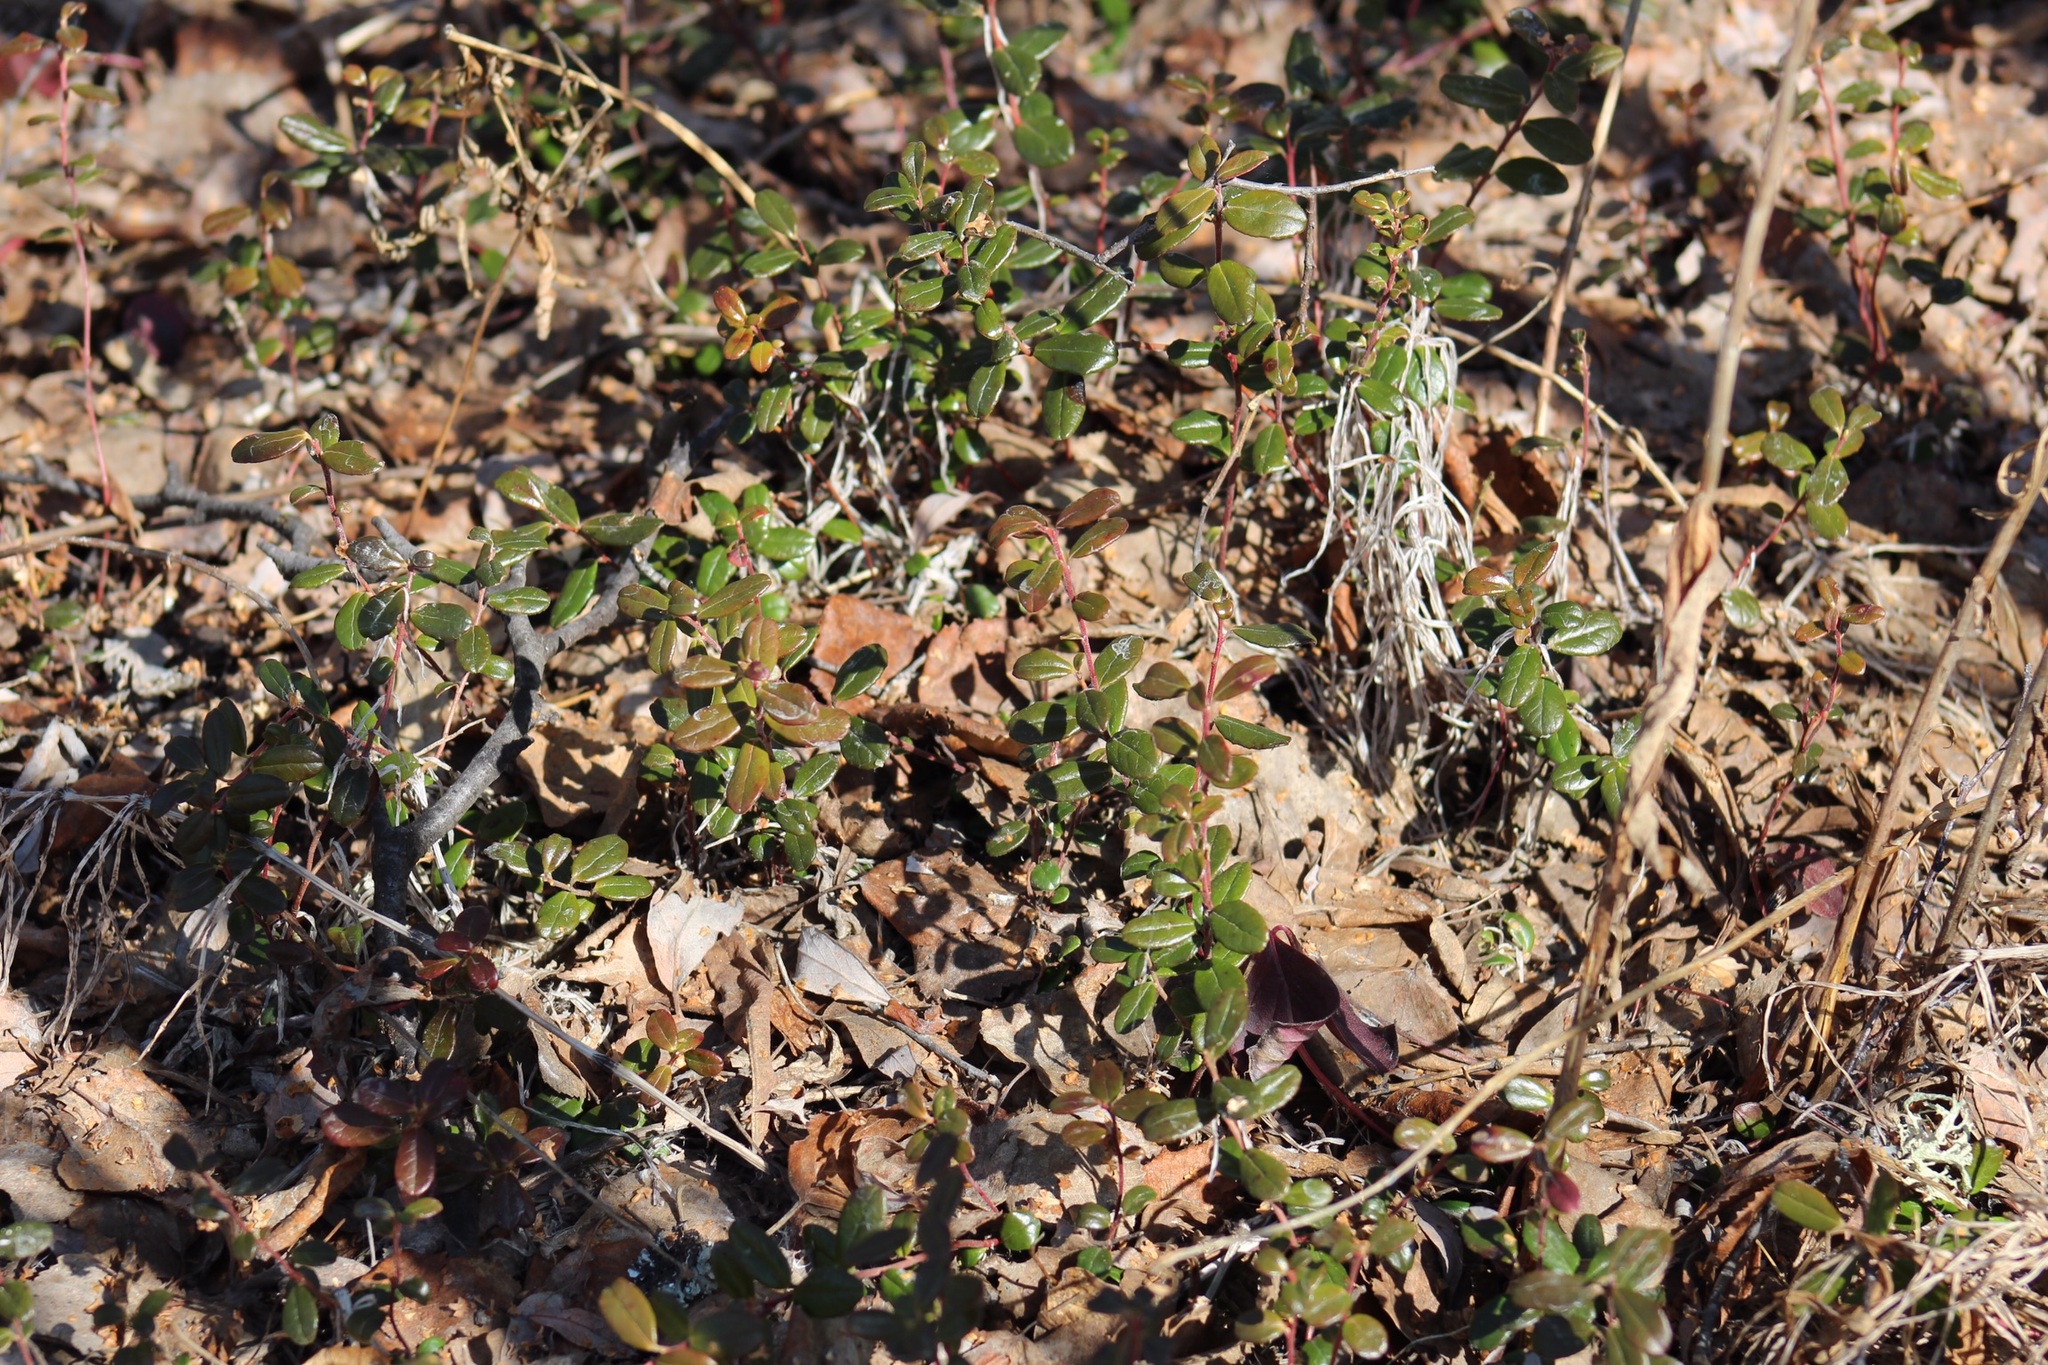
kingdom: Plantae
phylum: Tracheophyta
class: Magnoliopsida
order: Ericales
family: Ericaceae
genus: Vaccinium
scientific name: Vaccinium vitis-idaea
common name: Cowberry
